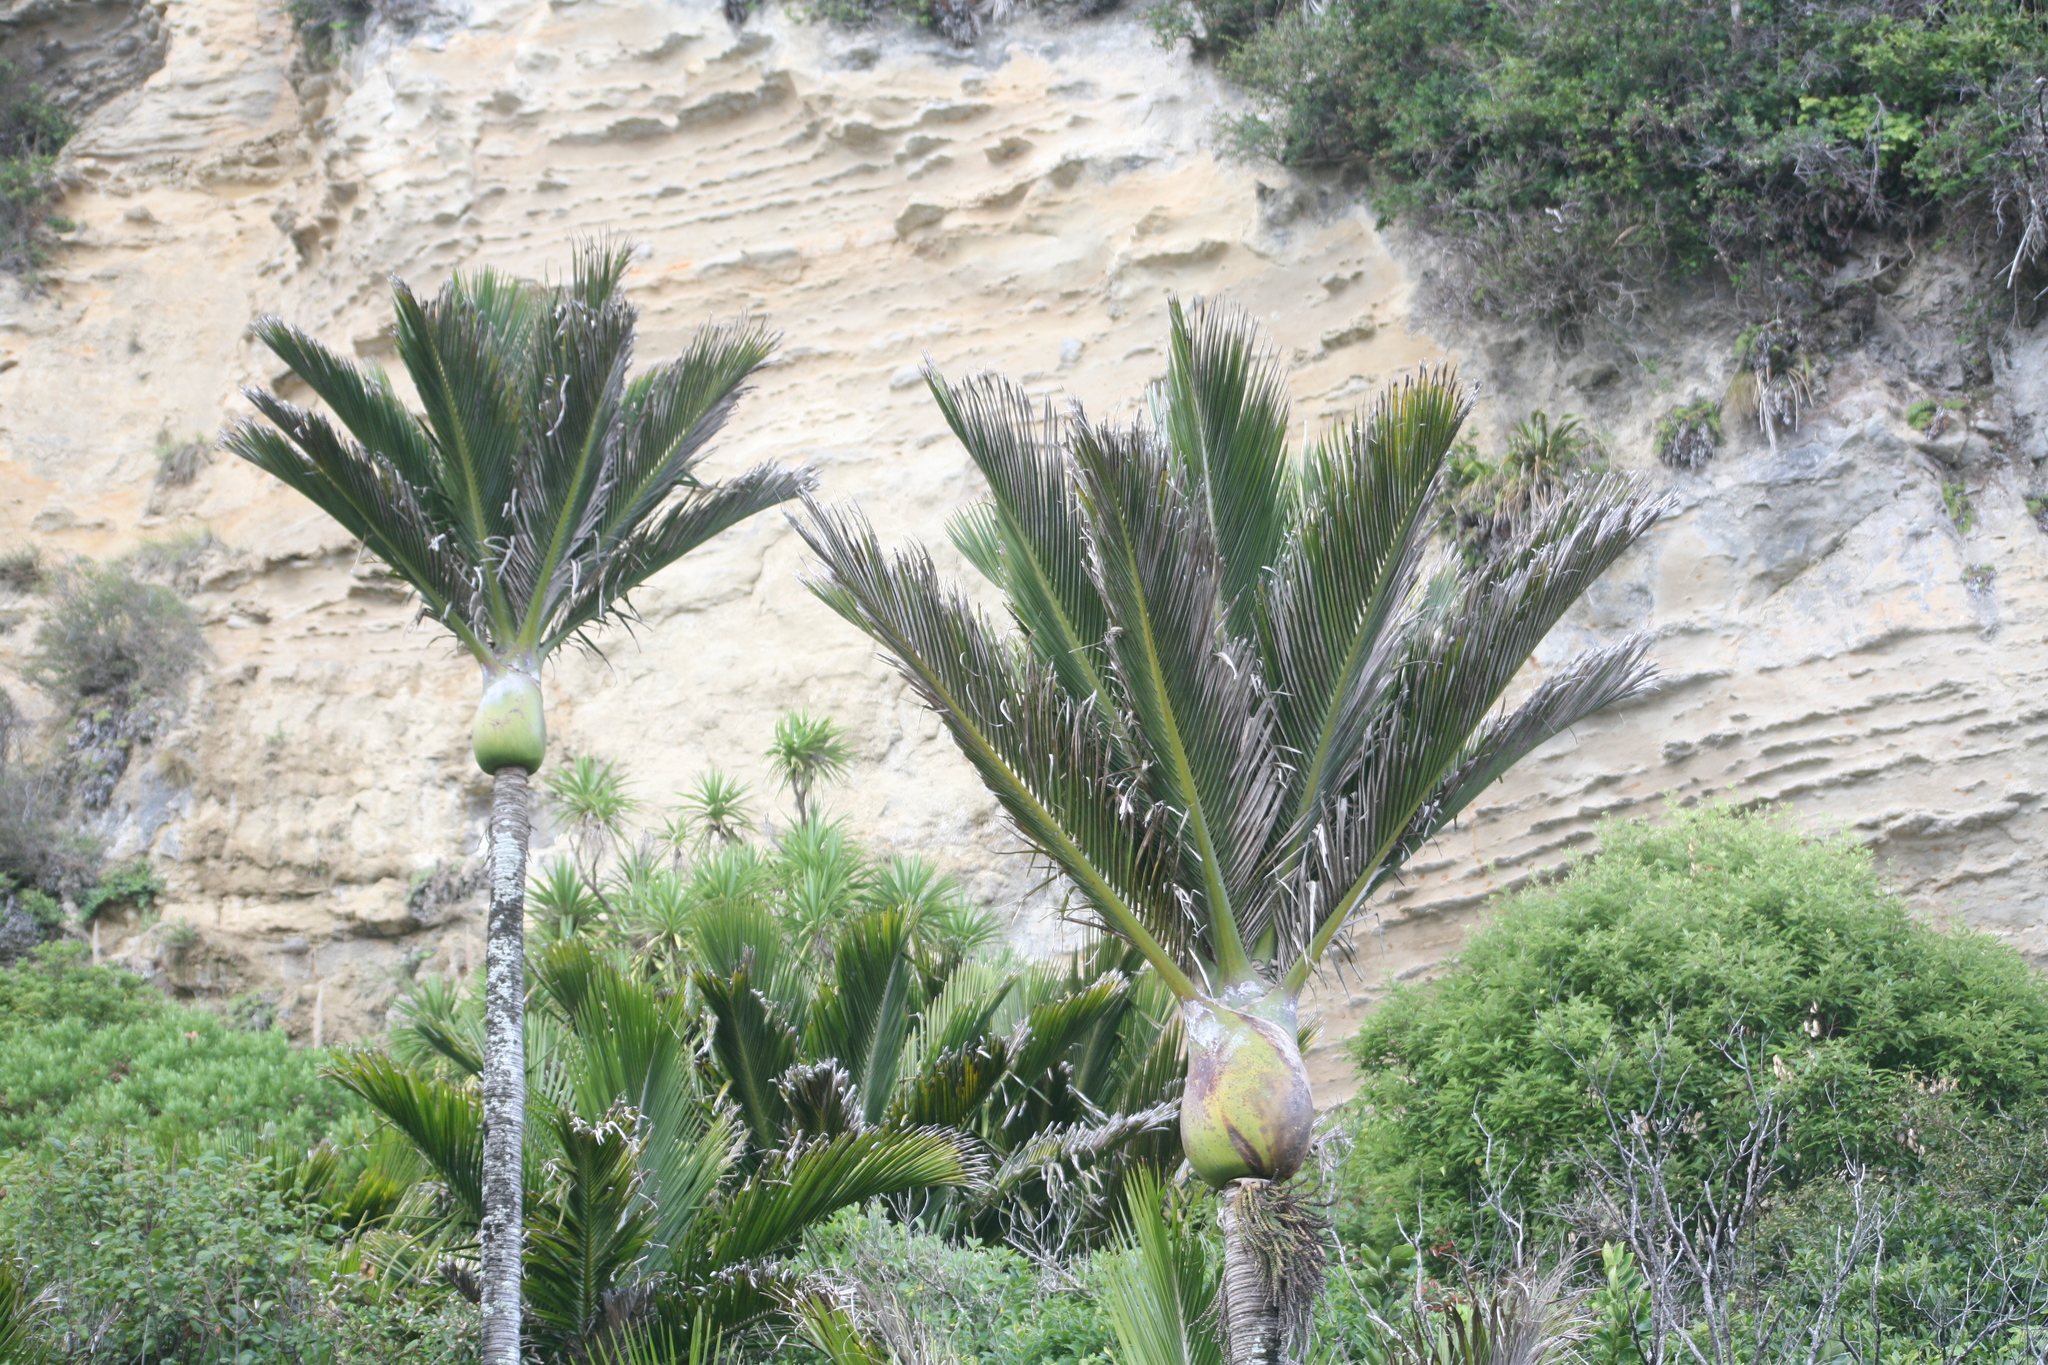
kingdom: Plantae
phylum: Tracheophyta
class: Liliopsida
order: Arecales
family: Arecaceae
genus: Rhopalostylis
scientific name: Rhopalostylis sapida
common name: Feather-duster palm
